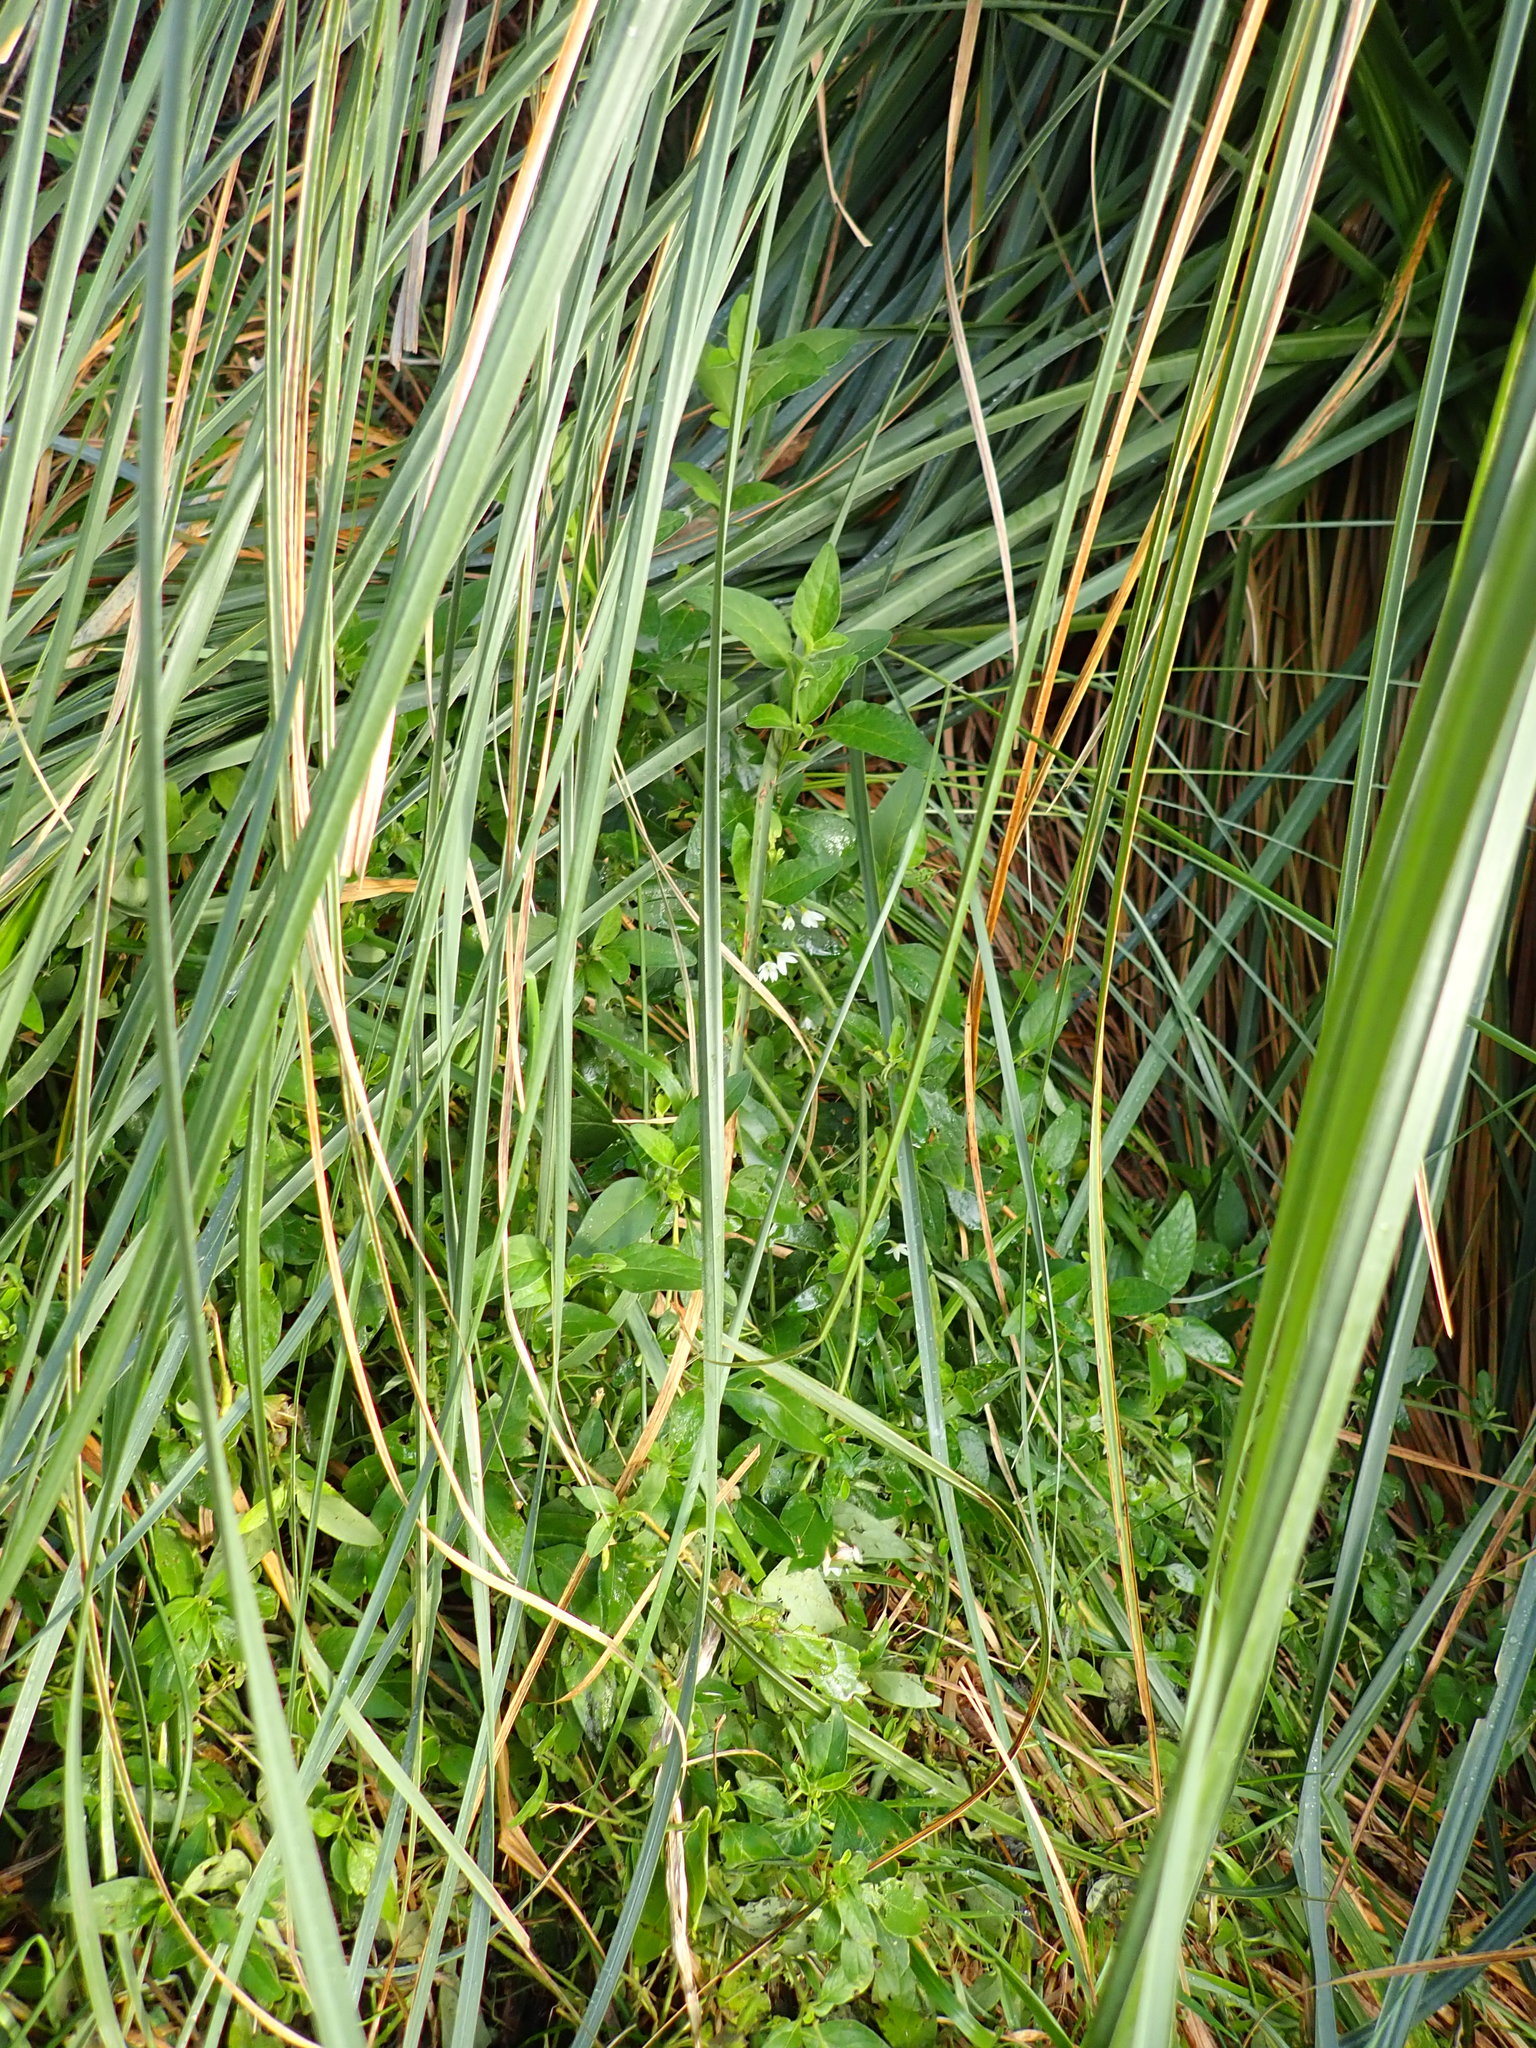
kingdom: Plantae
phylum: Tracheophyta
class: Magnoliopsida
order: Solanales
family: Solanaceae
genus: Solanum
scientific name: Solanum chenopodioides
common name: Tall nightshade
